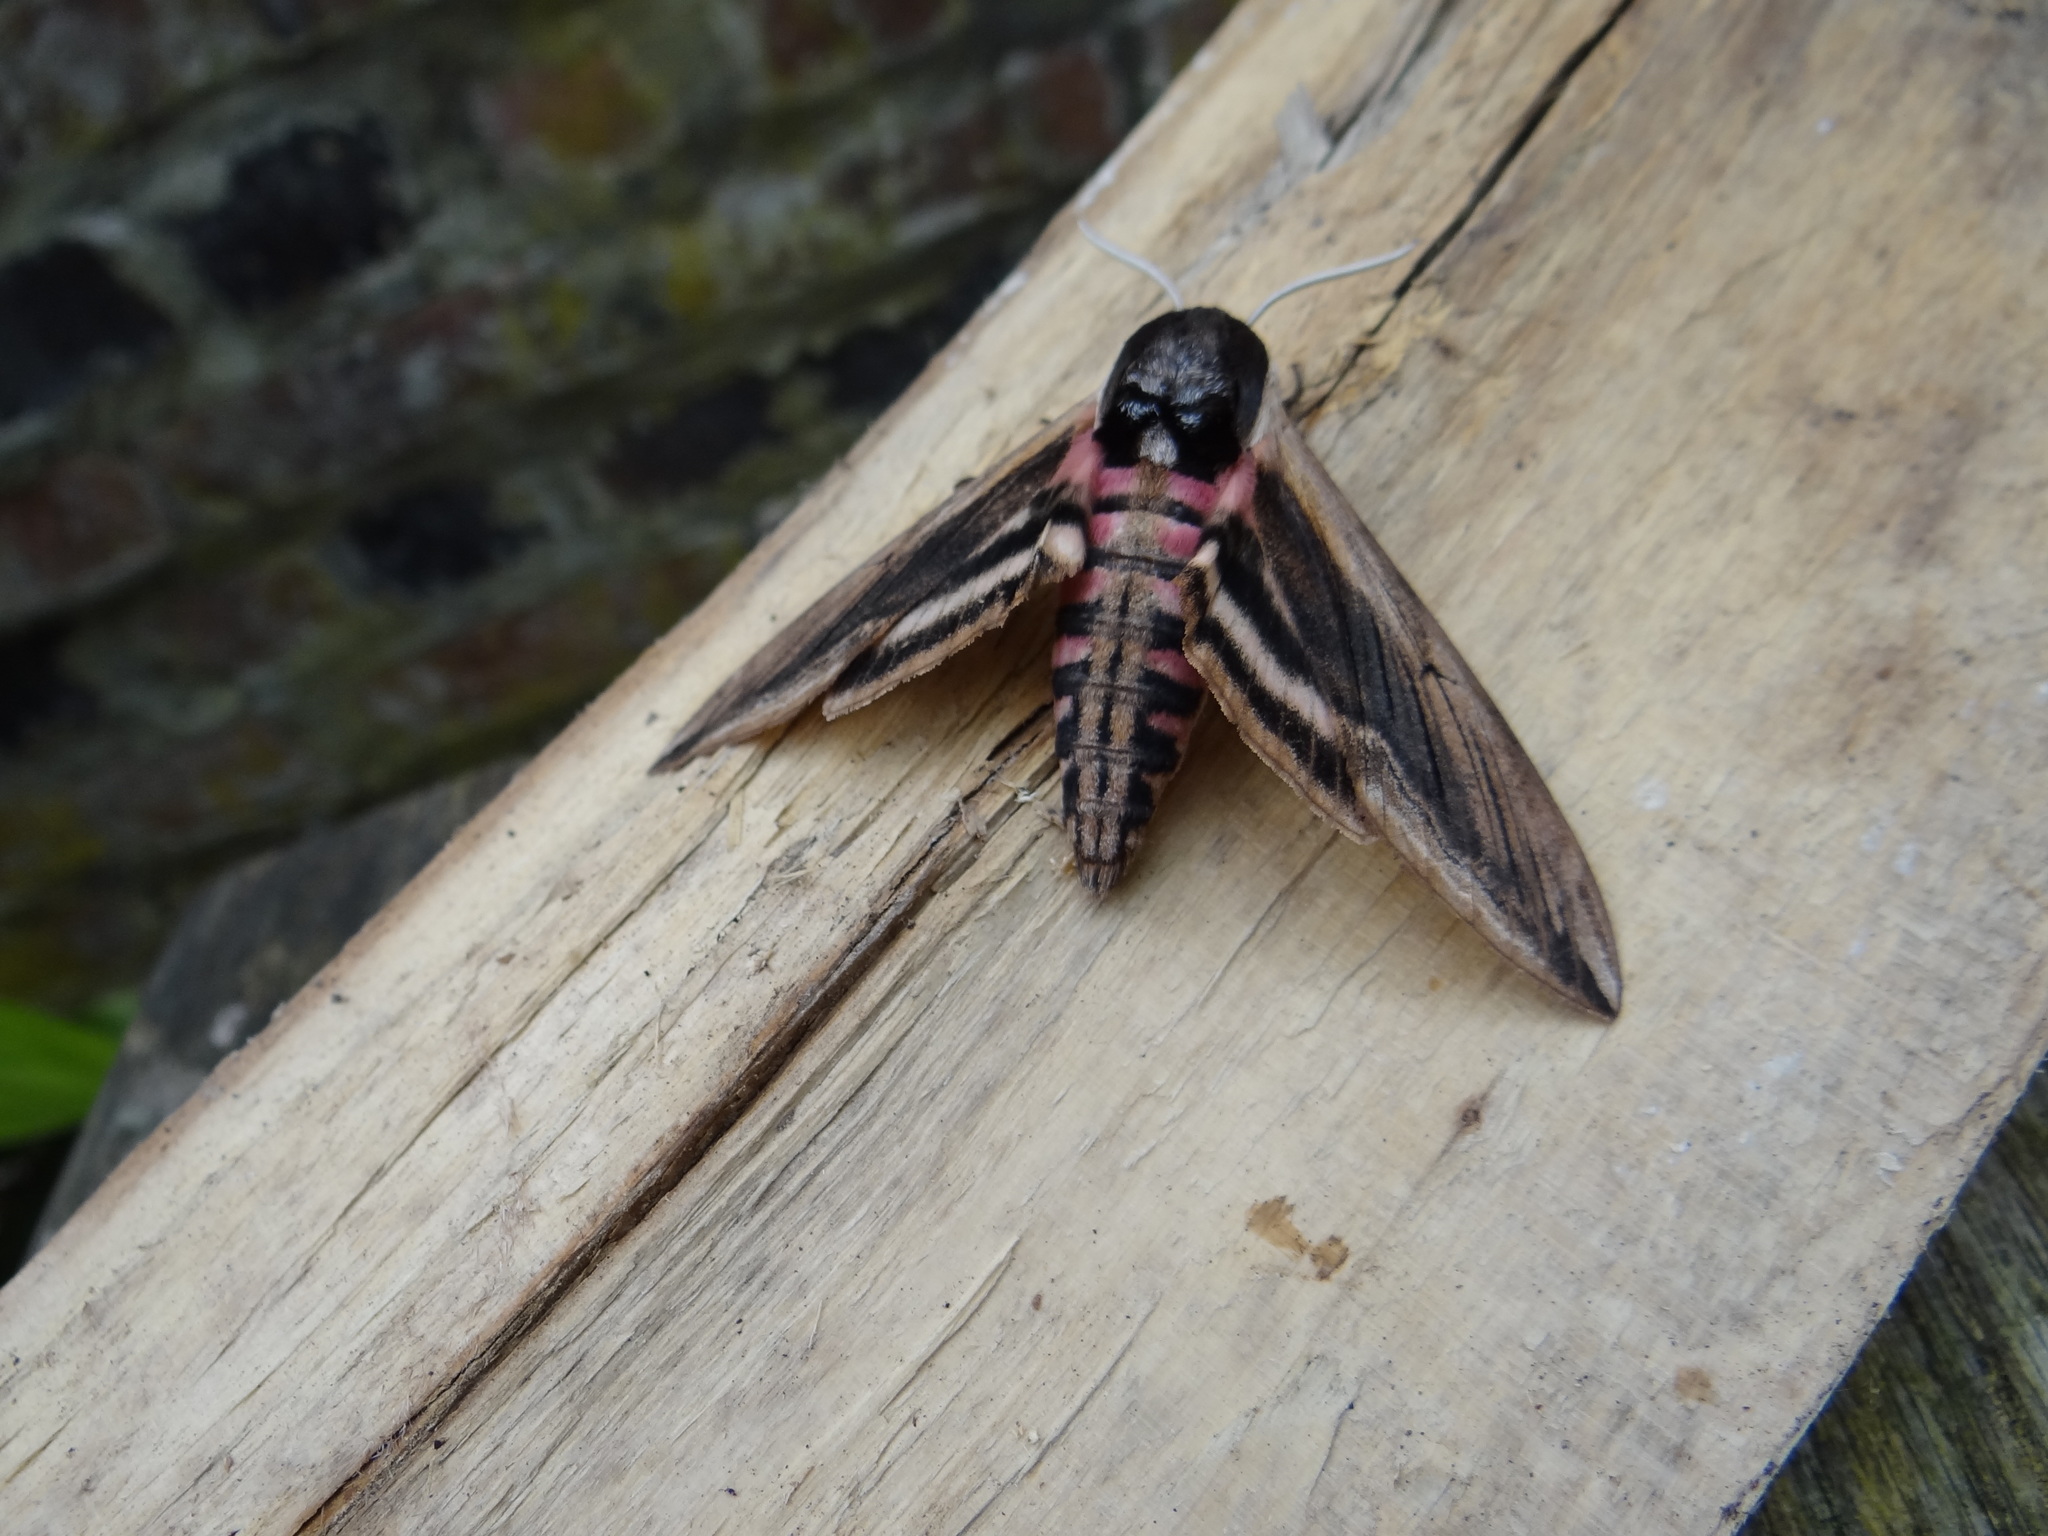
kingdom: Animalia
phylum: Arthropoda
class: Insecta
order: Lepidoptera
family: Sphingidae
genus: Sphinx
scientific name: Sphinx ligustri
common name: Privet hawk-moth
